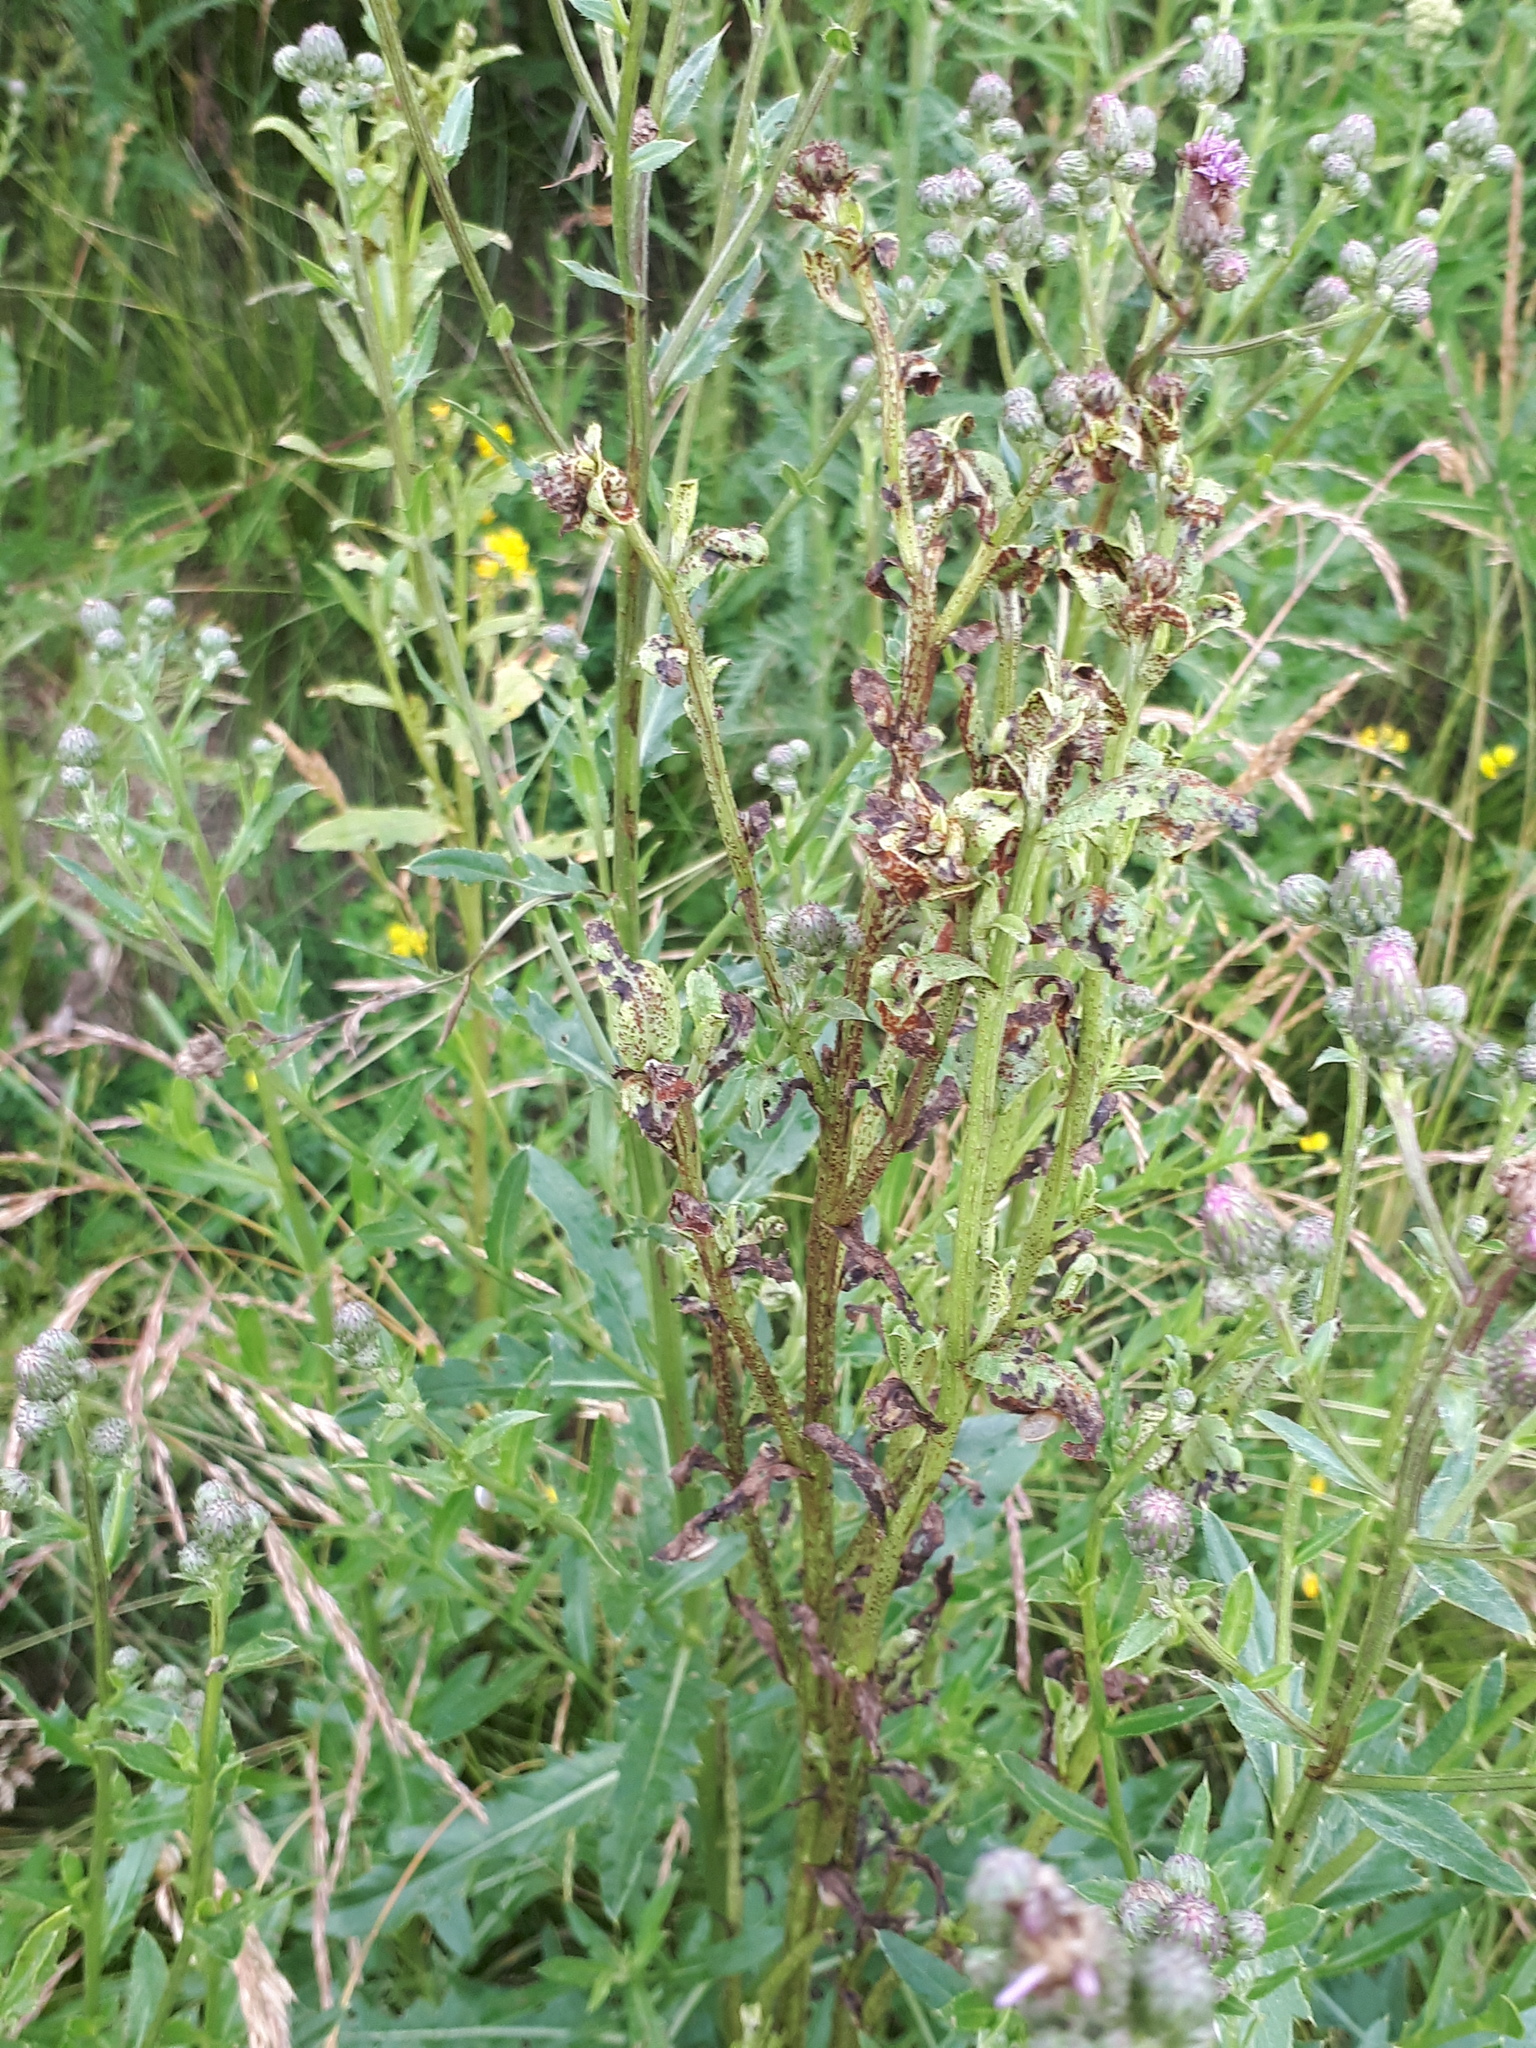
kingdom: Fungi
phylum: Basidiomycota
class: Pucciniomycetes
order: Pucciniales
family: Pucciniaceae
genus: Puccinia
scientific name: Puccinia suaveolens
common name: Thistle rust
